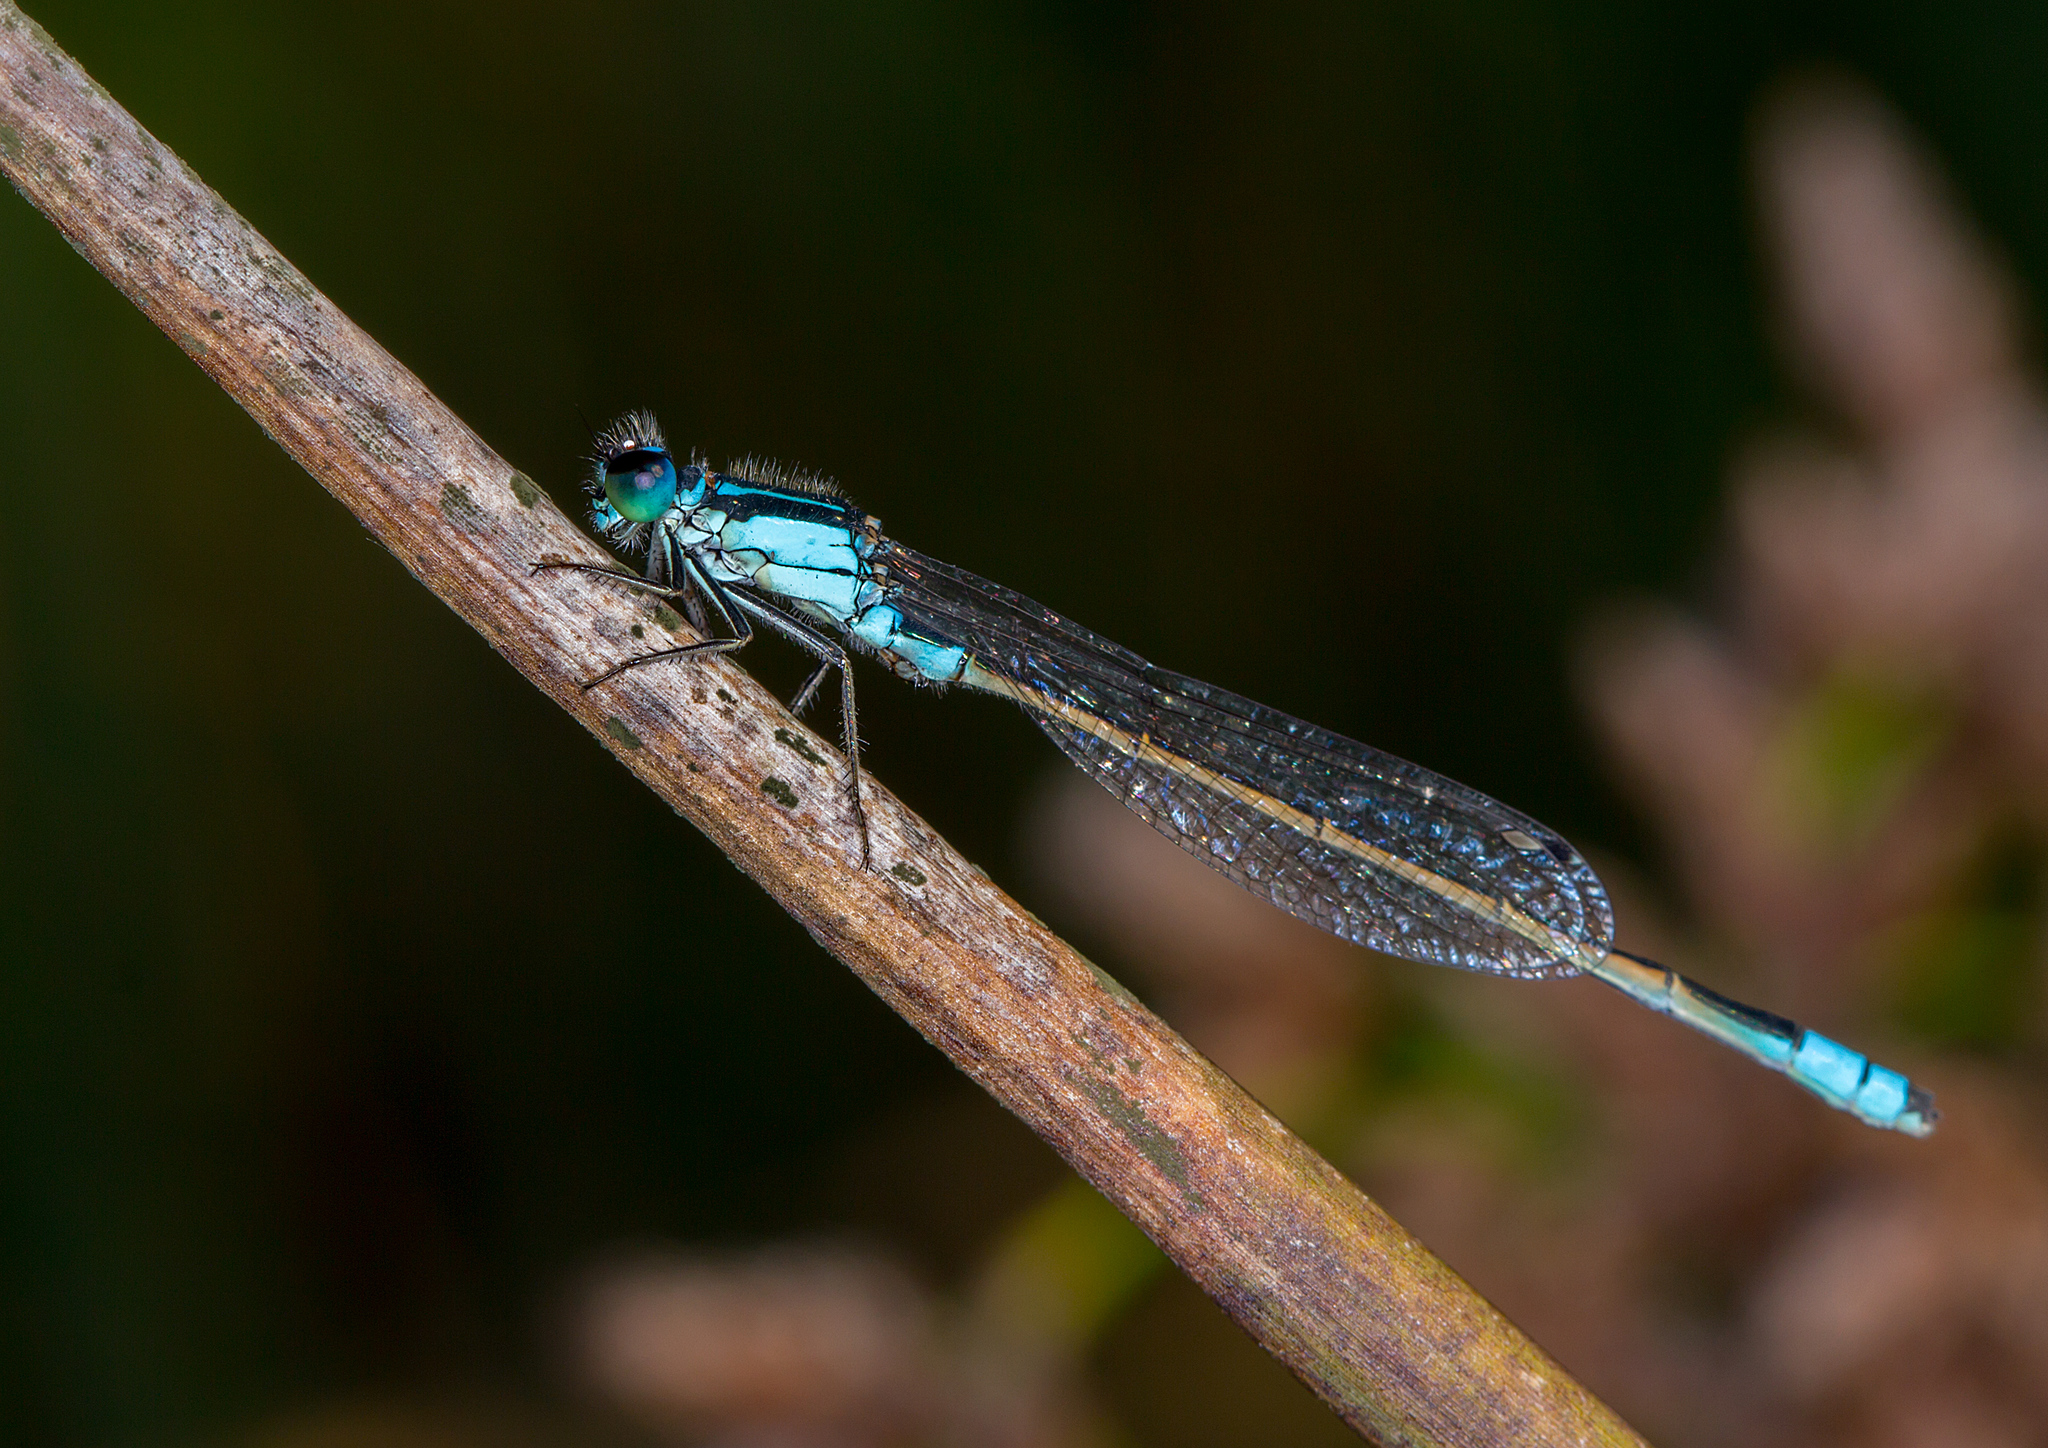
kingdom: Animalia
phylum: Arthropoda
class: Insecta
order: Odonata
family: Coenagrionidae
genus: Ischnura
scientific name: Ischnura heterosticta
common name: Common bluetail
